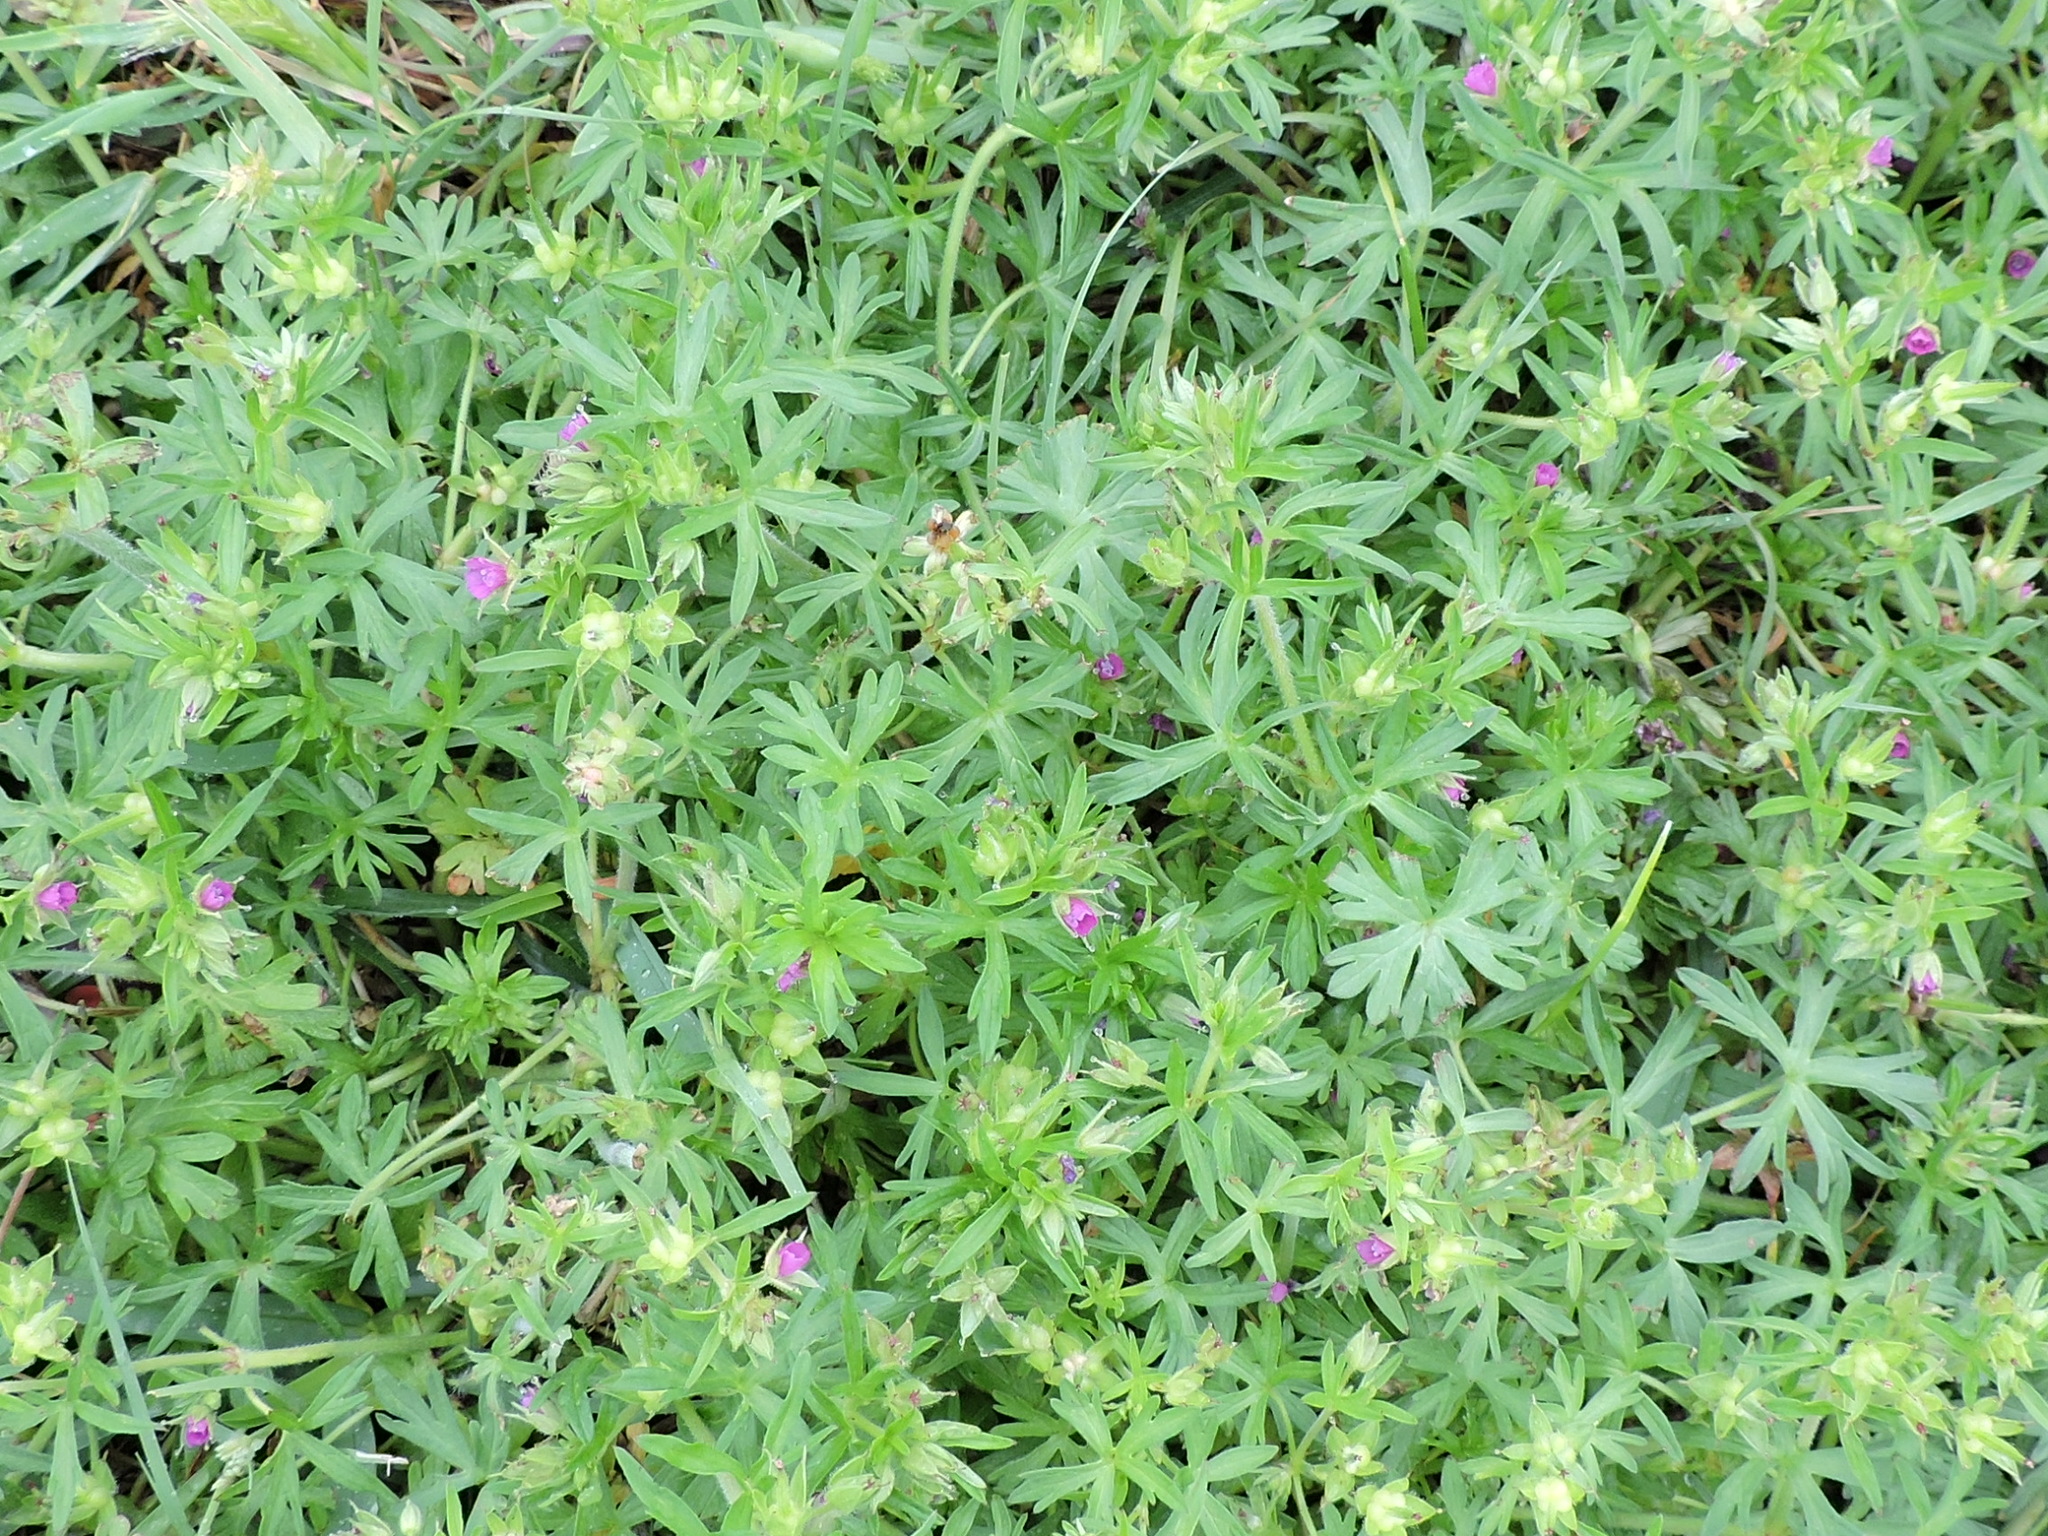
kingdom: Plantae
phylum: Tracheophyta
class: Magnoliopsida
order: Geraniales
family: Geraniaceae
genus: Geranium
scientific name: Geranium dissectum
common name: Cut-leaved crane's-bill
